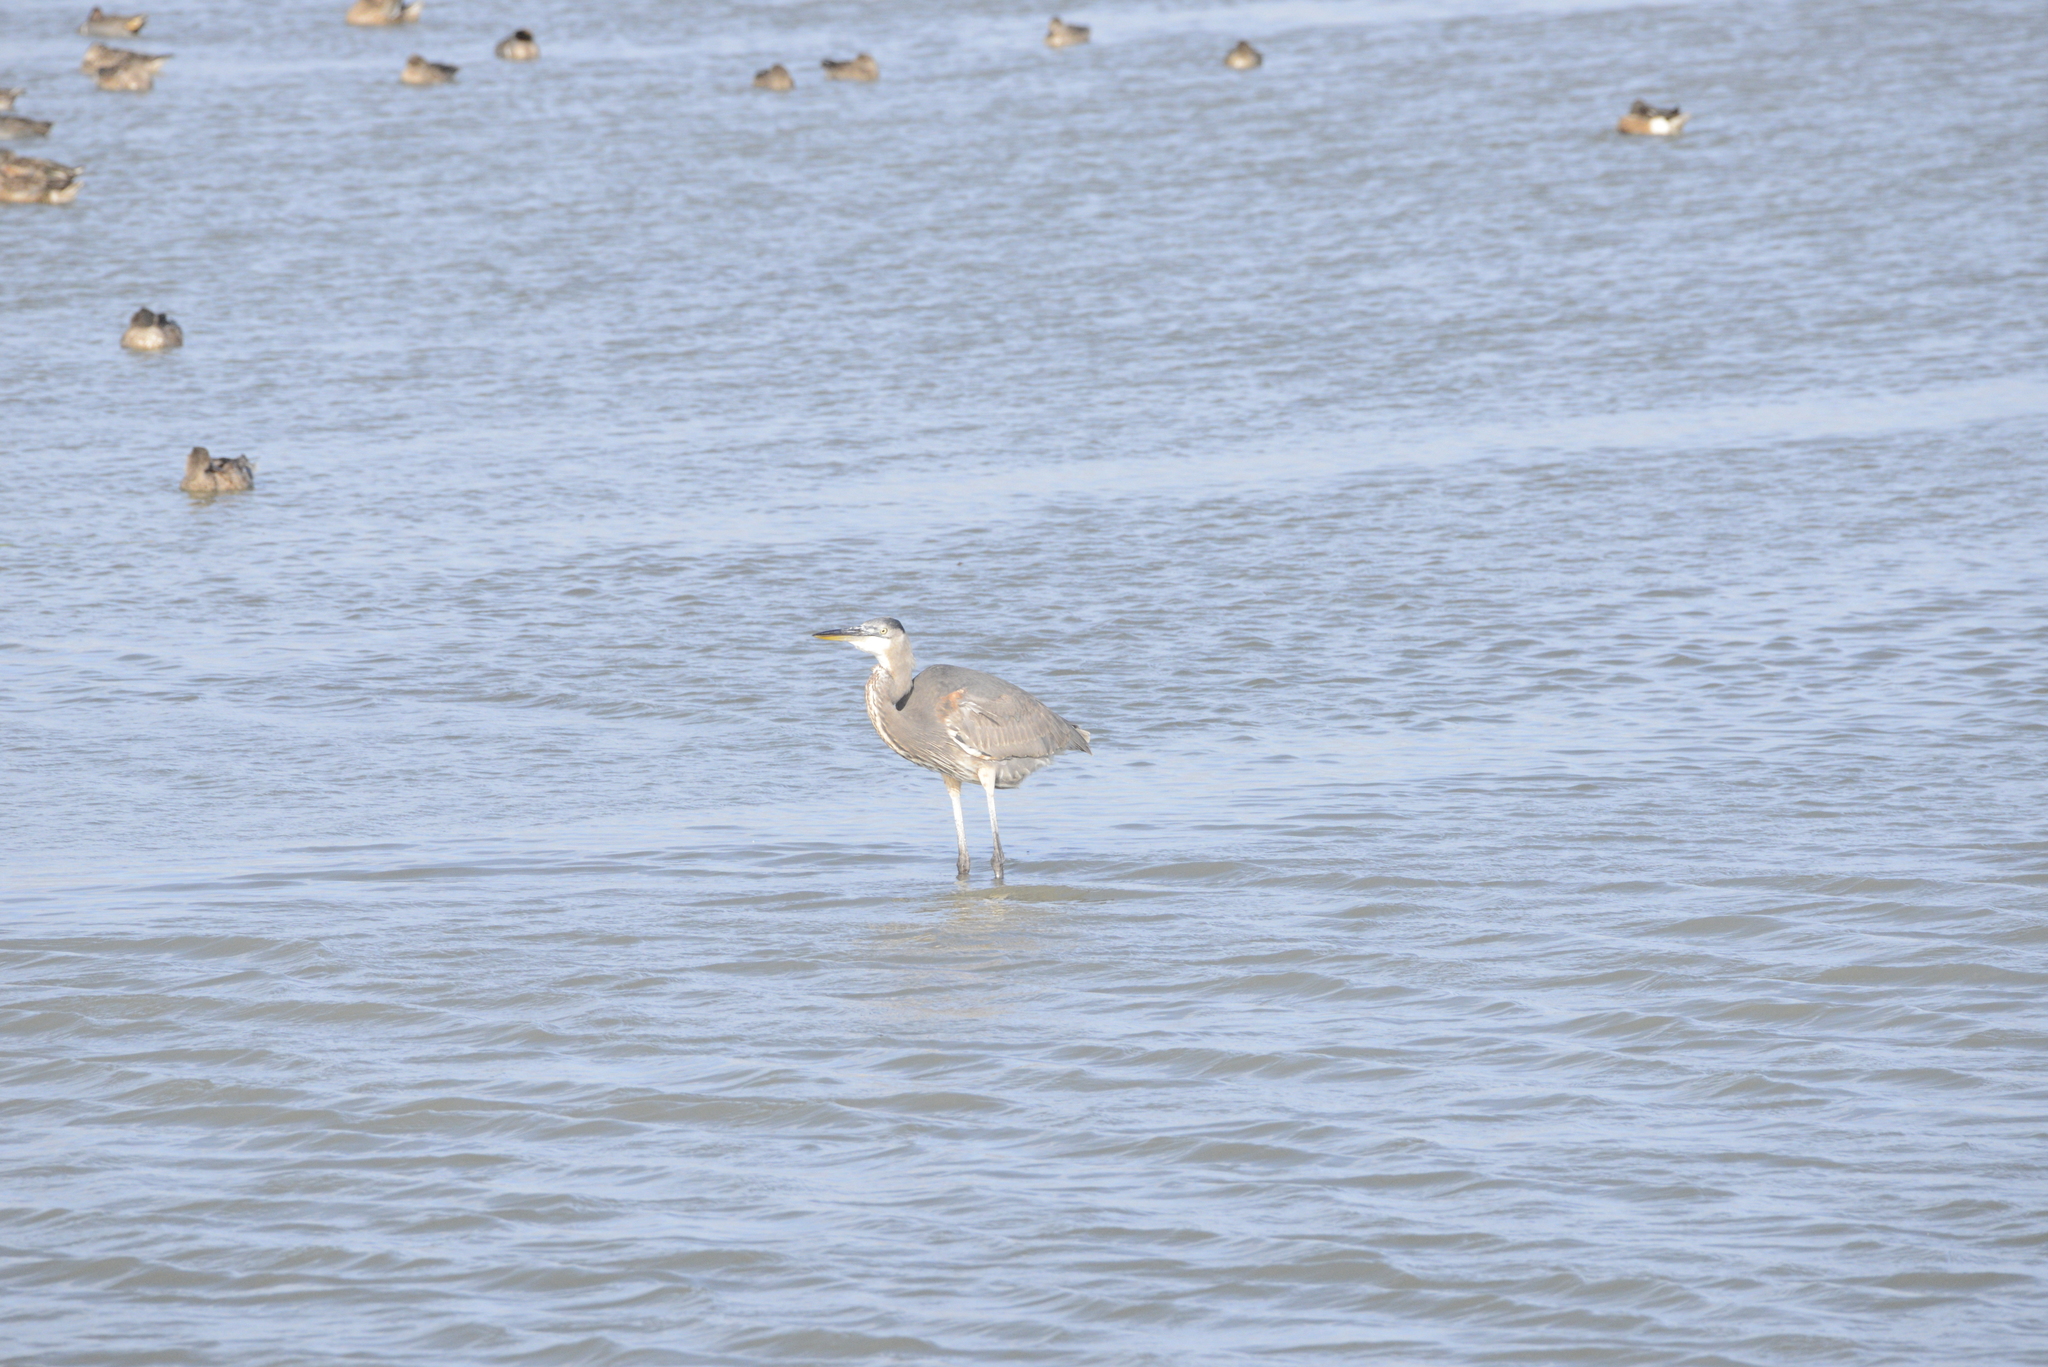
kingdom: Animalia
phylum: Chordata
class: Aves
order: Pelecaniformes
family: Ardeidae
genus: Ardea
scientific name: Ardea herodias
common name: Great blue heron
